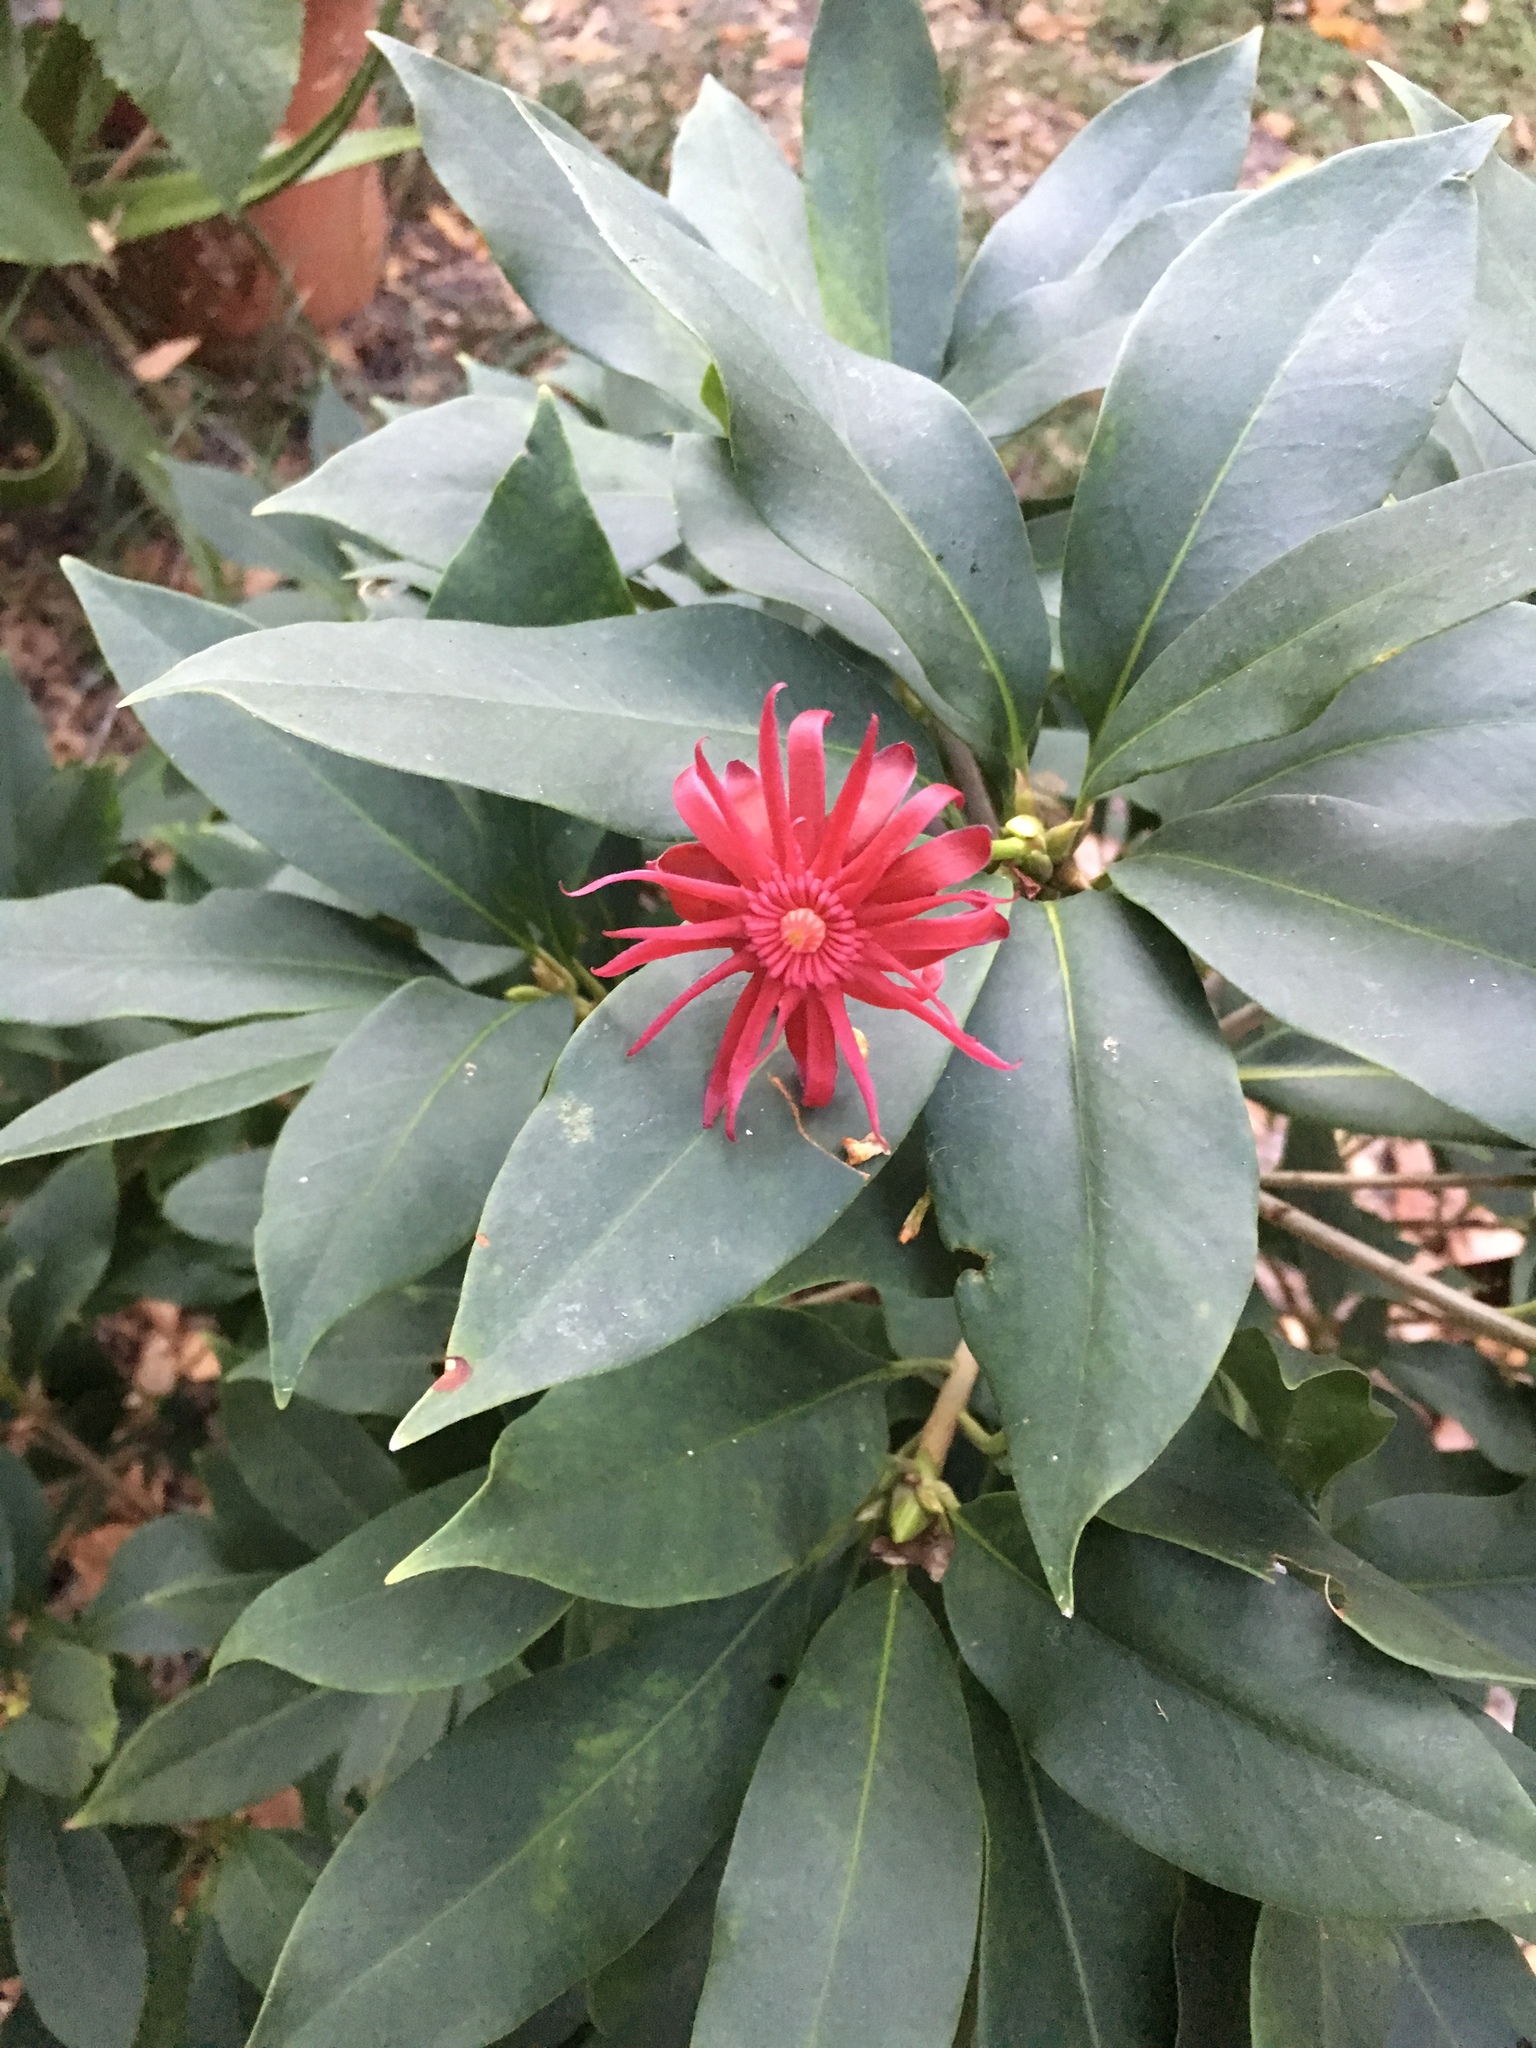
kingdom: Plantae
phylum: Tracheophyta
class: Magnoliopsida
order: Austrobaileyales
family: Schisandraceae
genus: Illicium
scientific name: Illicium floridanum
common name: Florida anisetree
